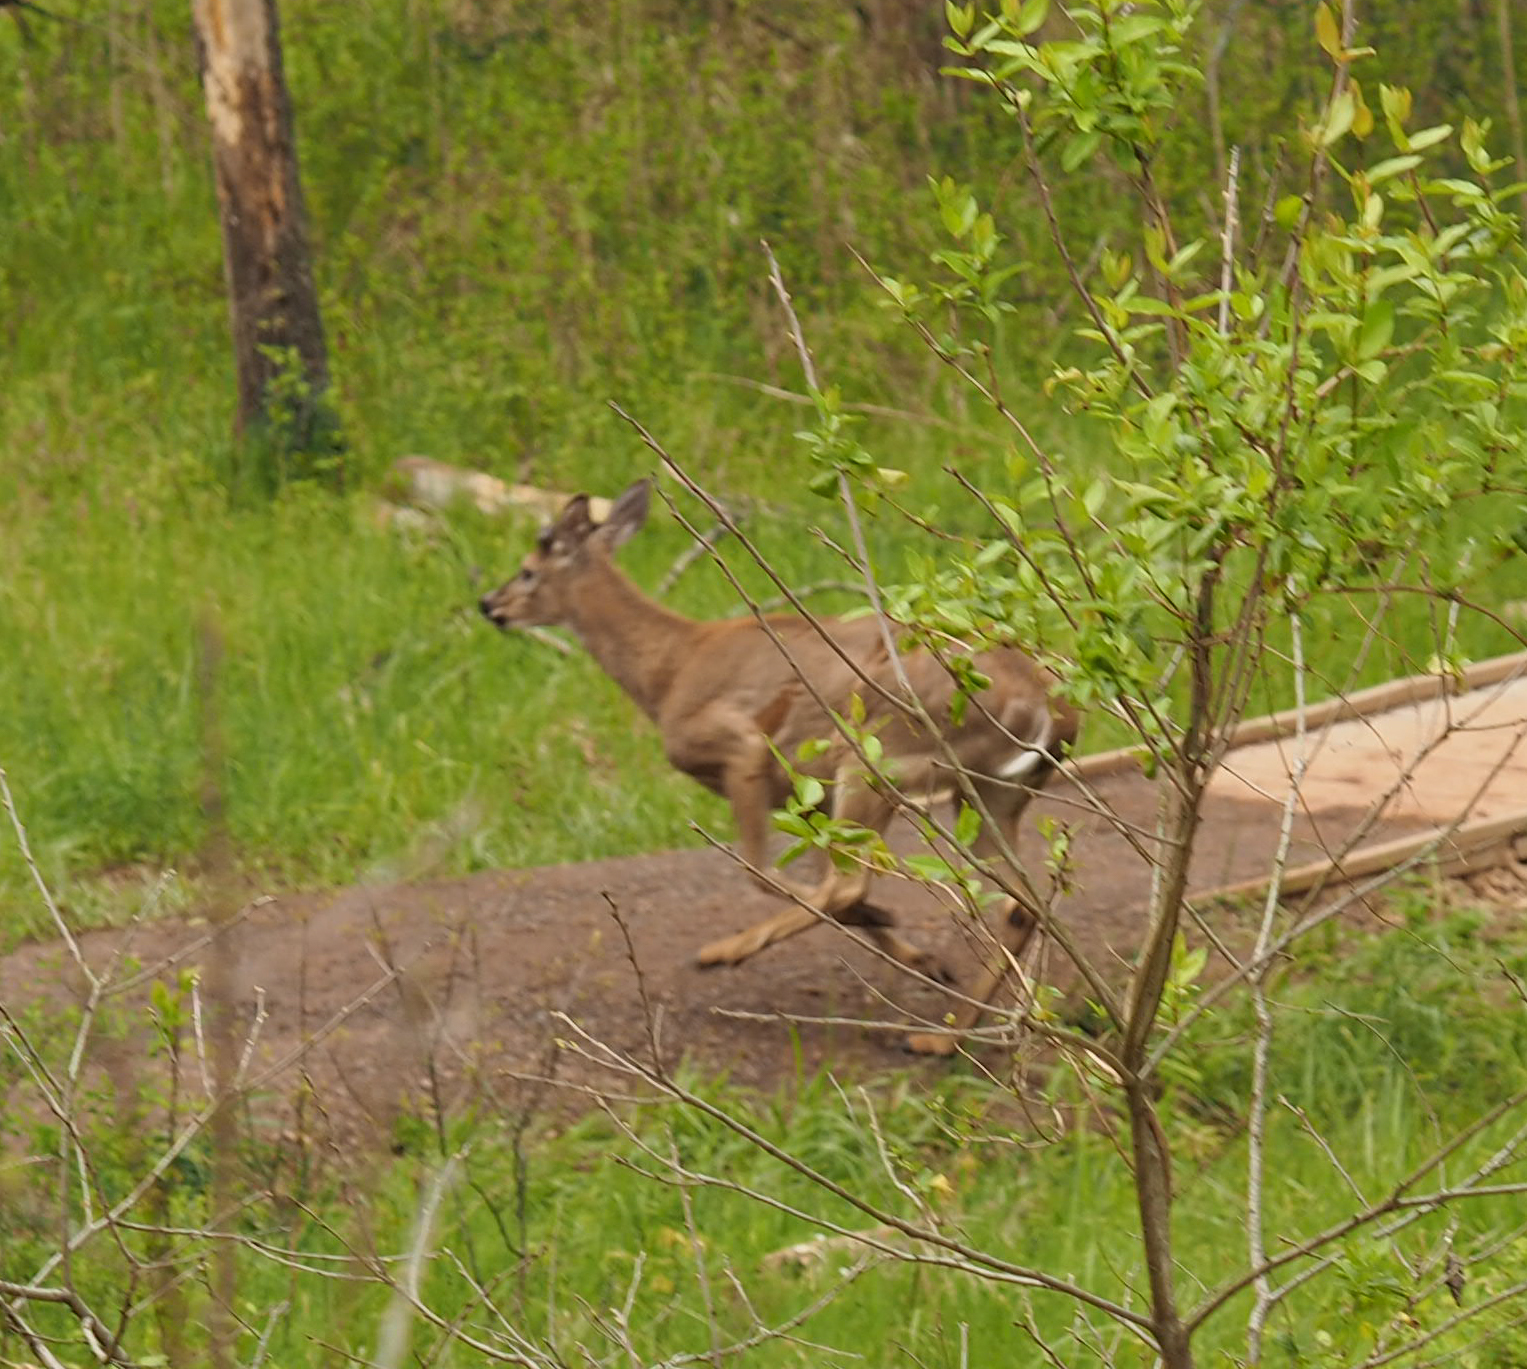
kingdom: Animalia
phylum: Chordata
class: Mammalia
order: Artiodactyla
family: Cervidae
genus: Odocoileus
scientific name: Odocoileus virginianus
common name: White-tailed deer
